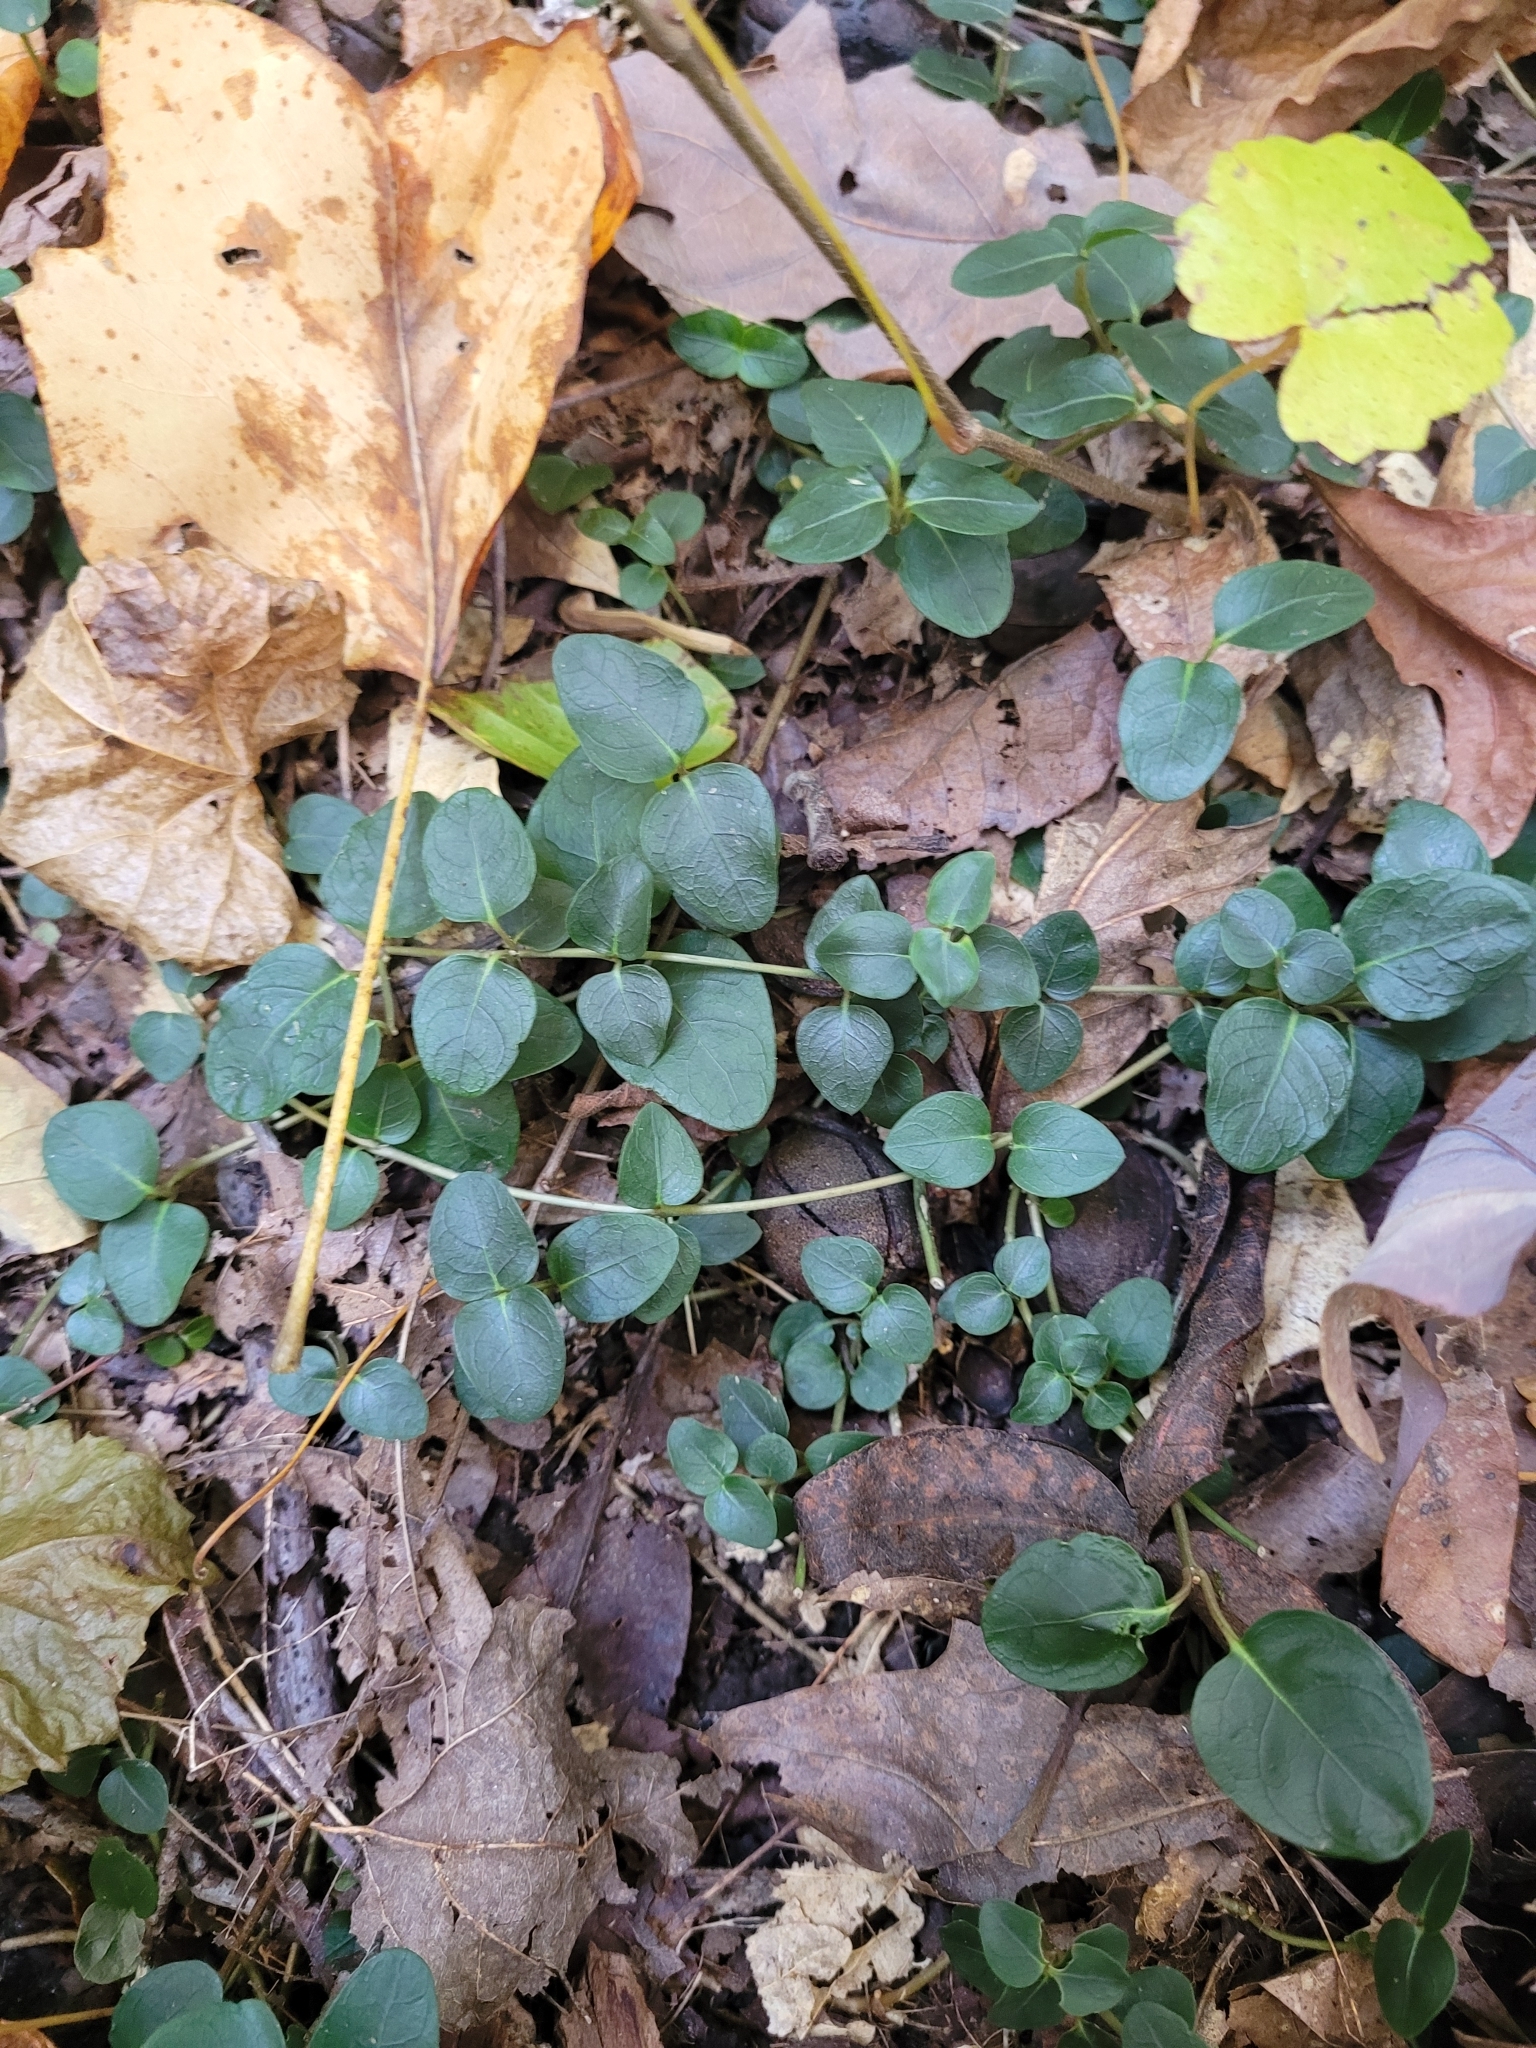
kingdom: Plantae
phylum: Tracheophyta
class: Magnoliopsida
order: Gentianales
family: Rubiaceae
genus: Mitchella
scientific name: Mitchella repens
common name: Partridge-berry
